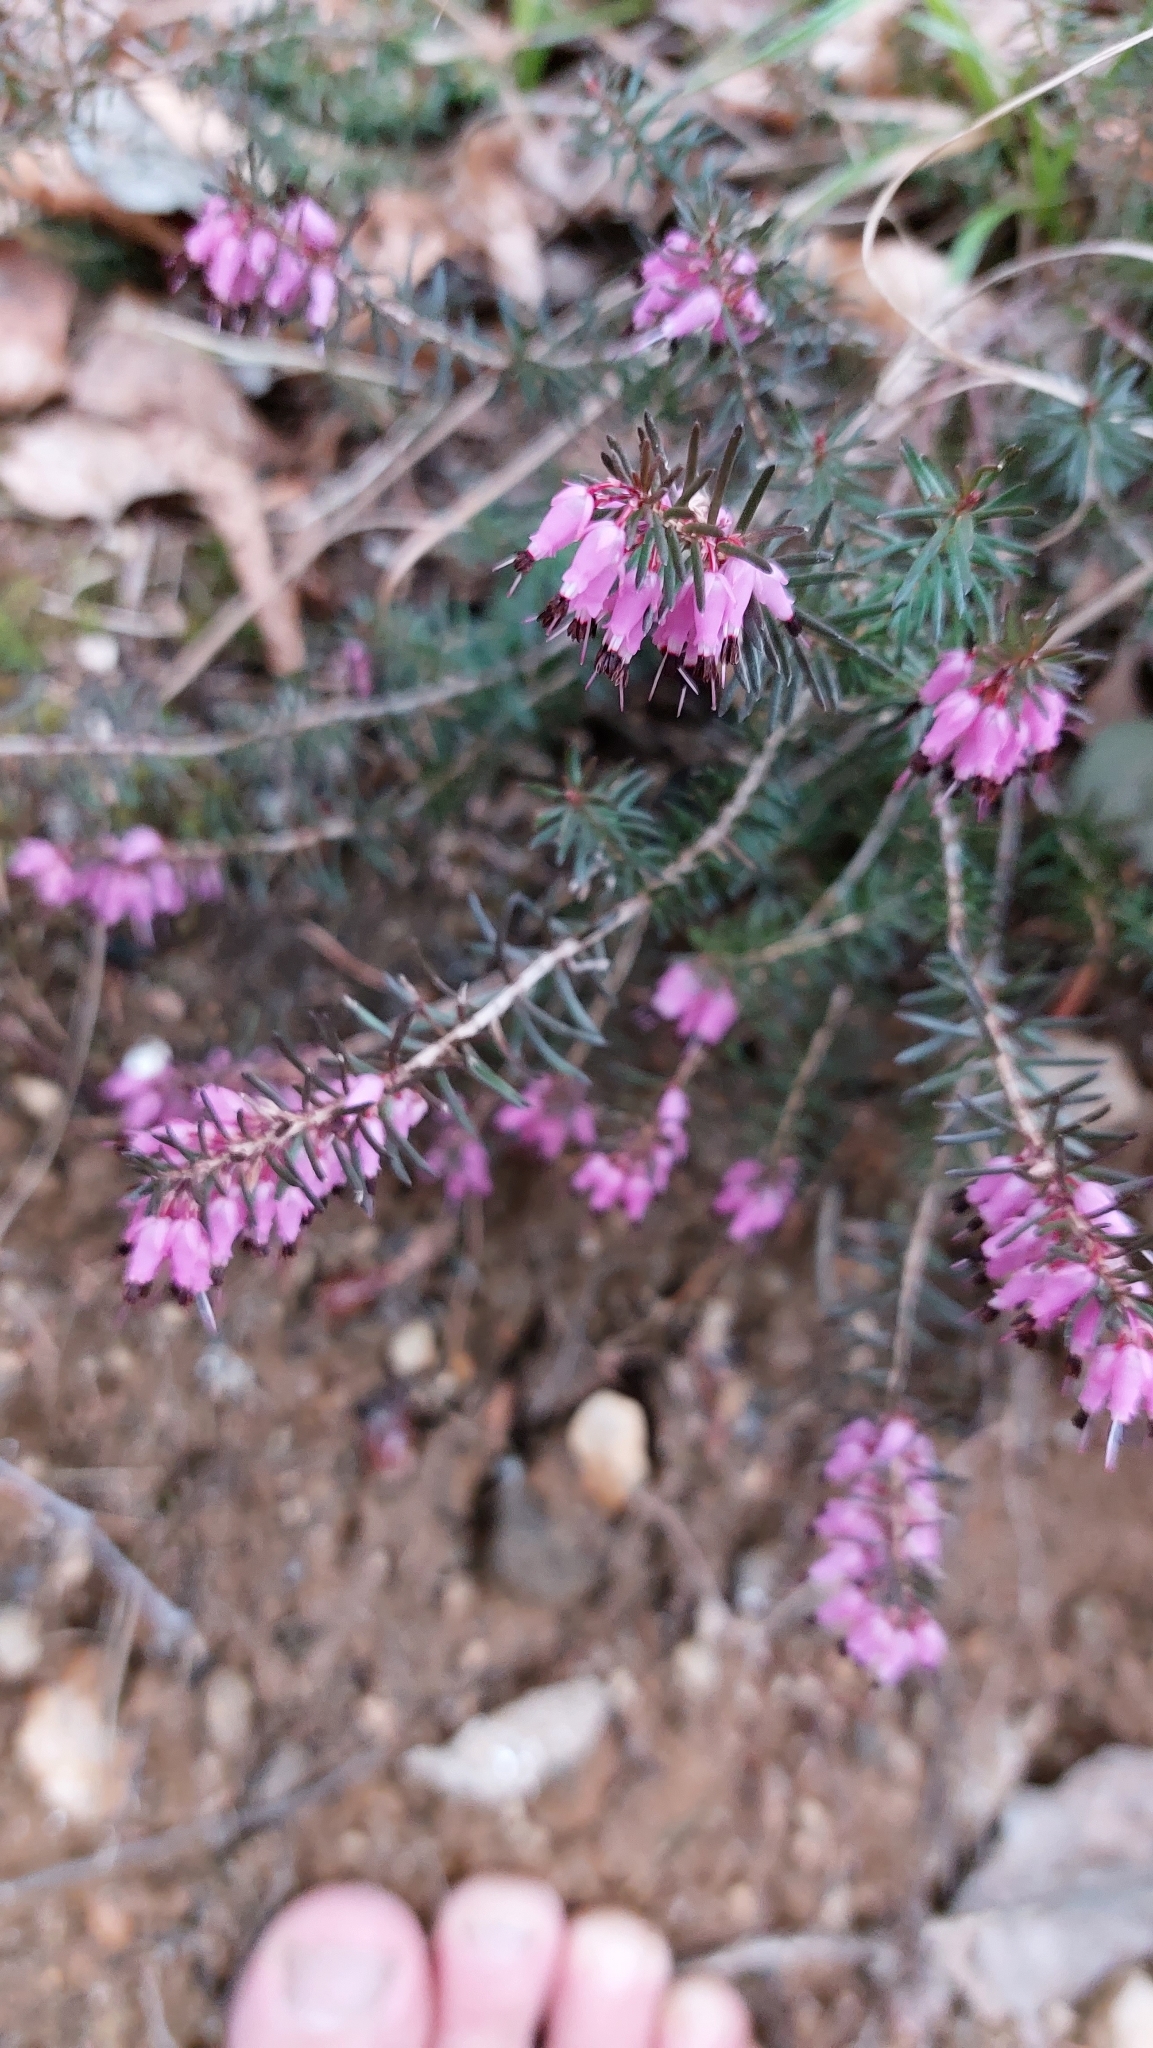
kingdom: Plantae
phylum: Tracheophyta
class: Magnoliopsida
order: Ericales
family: Ericaceae
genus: Erica
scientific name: Erica carnea
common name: Winter heath
